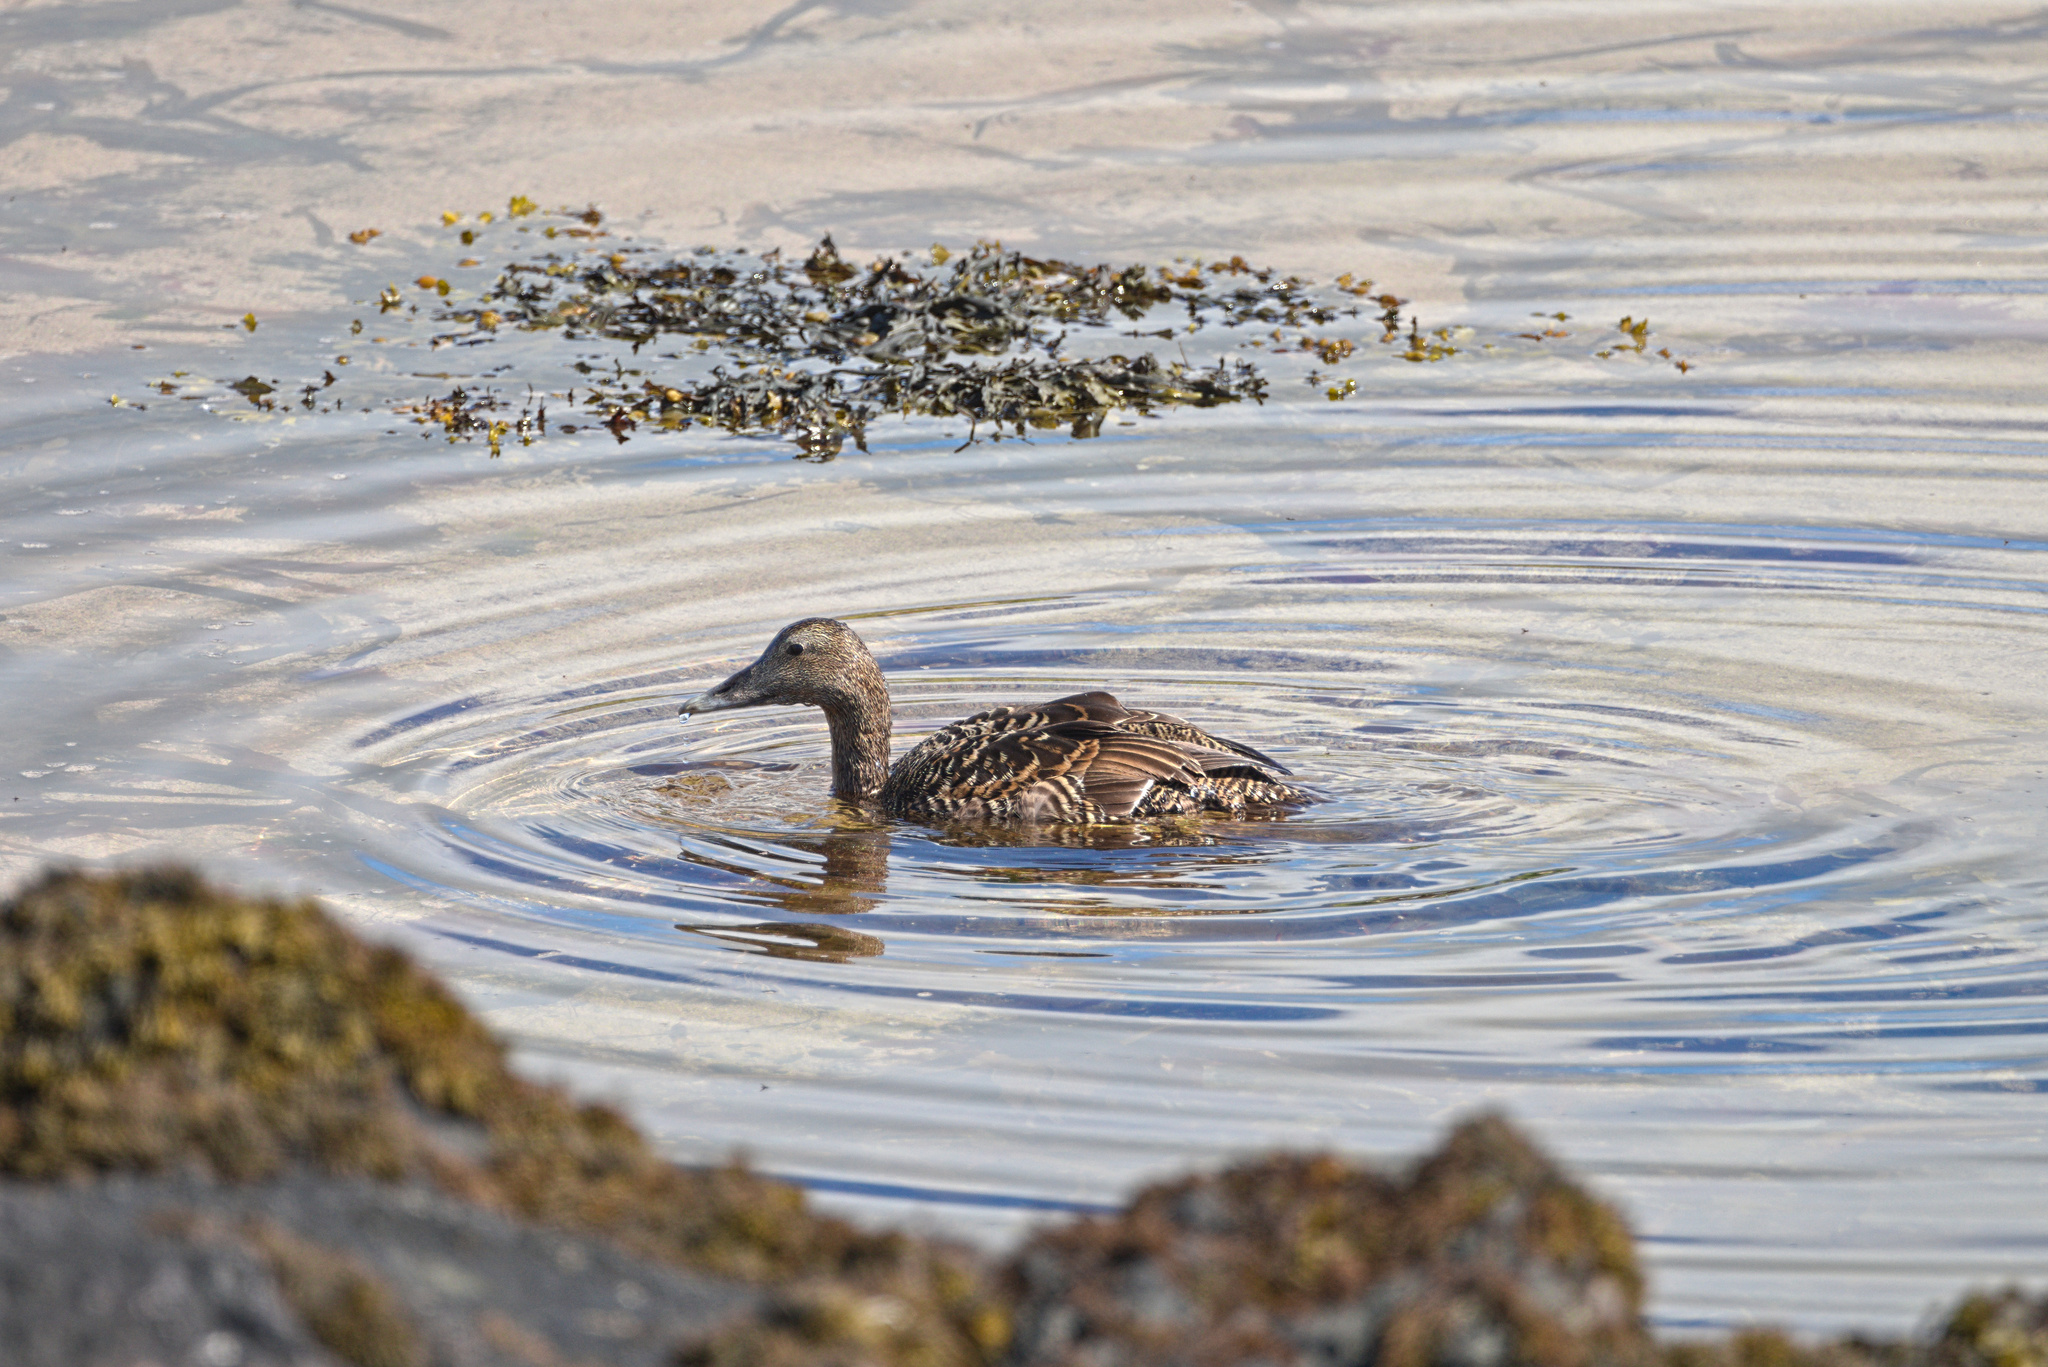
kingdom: Animalia
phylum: Chordata
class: Aves
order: Anseriformes
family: Anatidae
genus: Somateria
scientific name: Somateria mollissima
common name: Common eider
